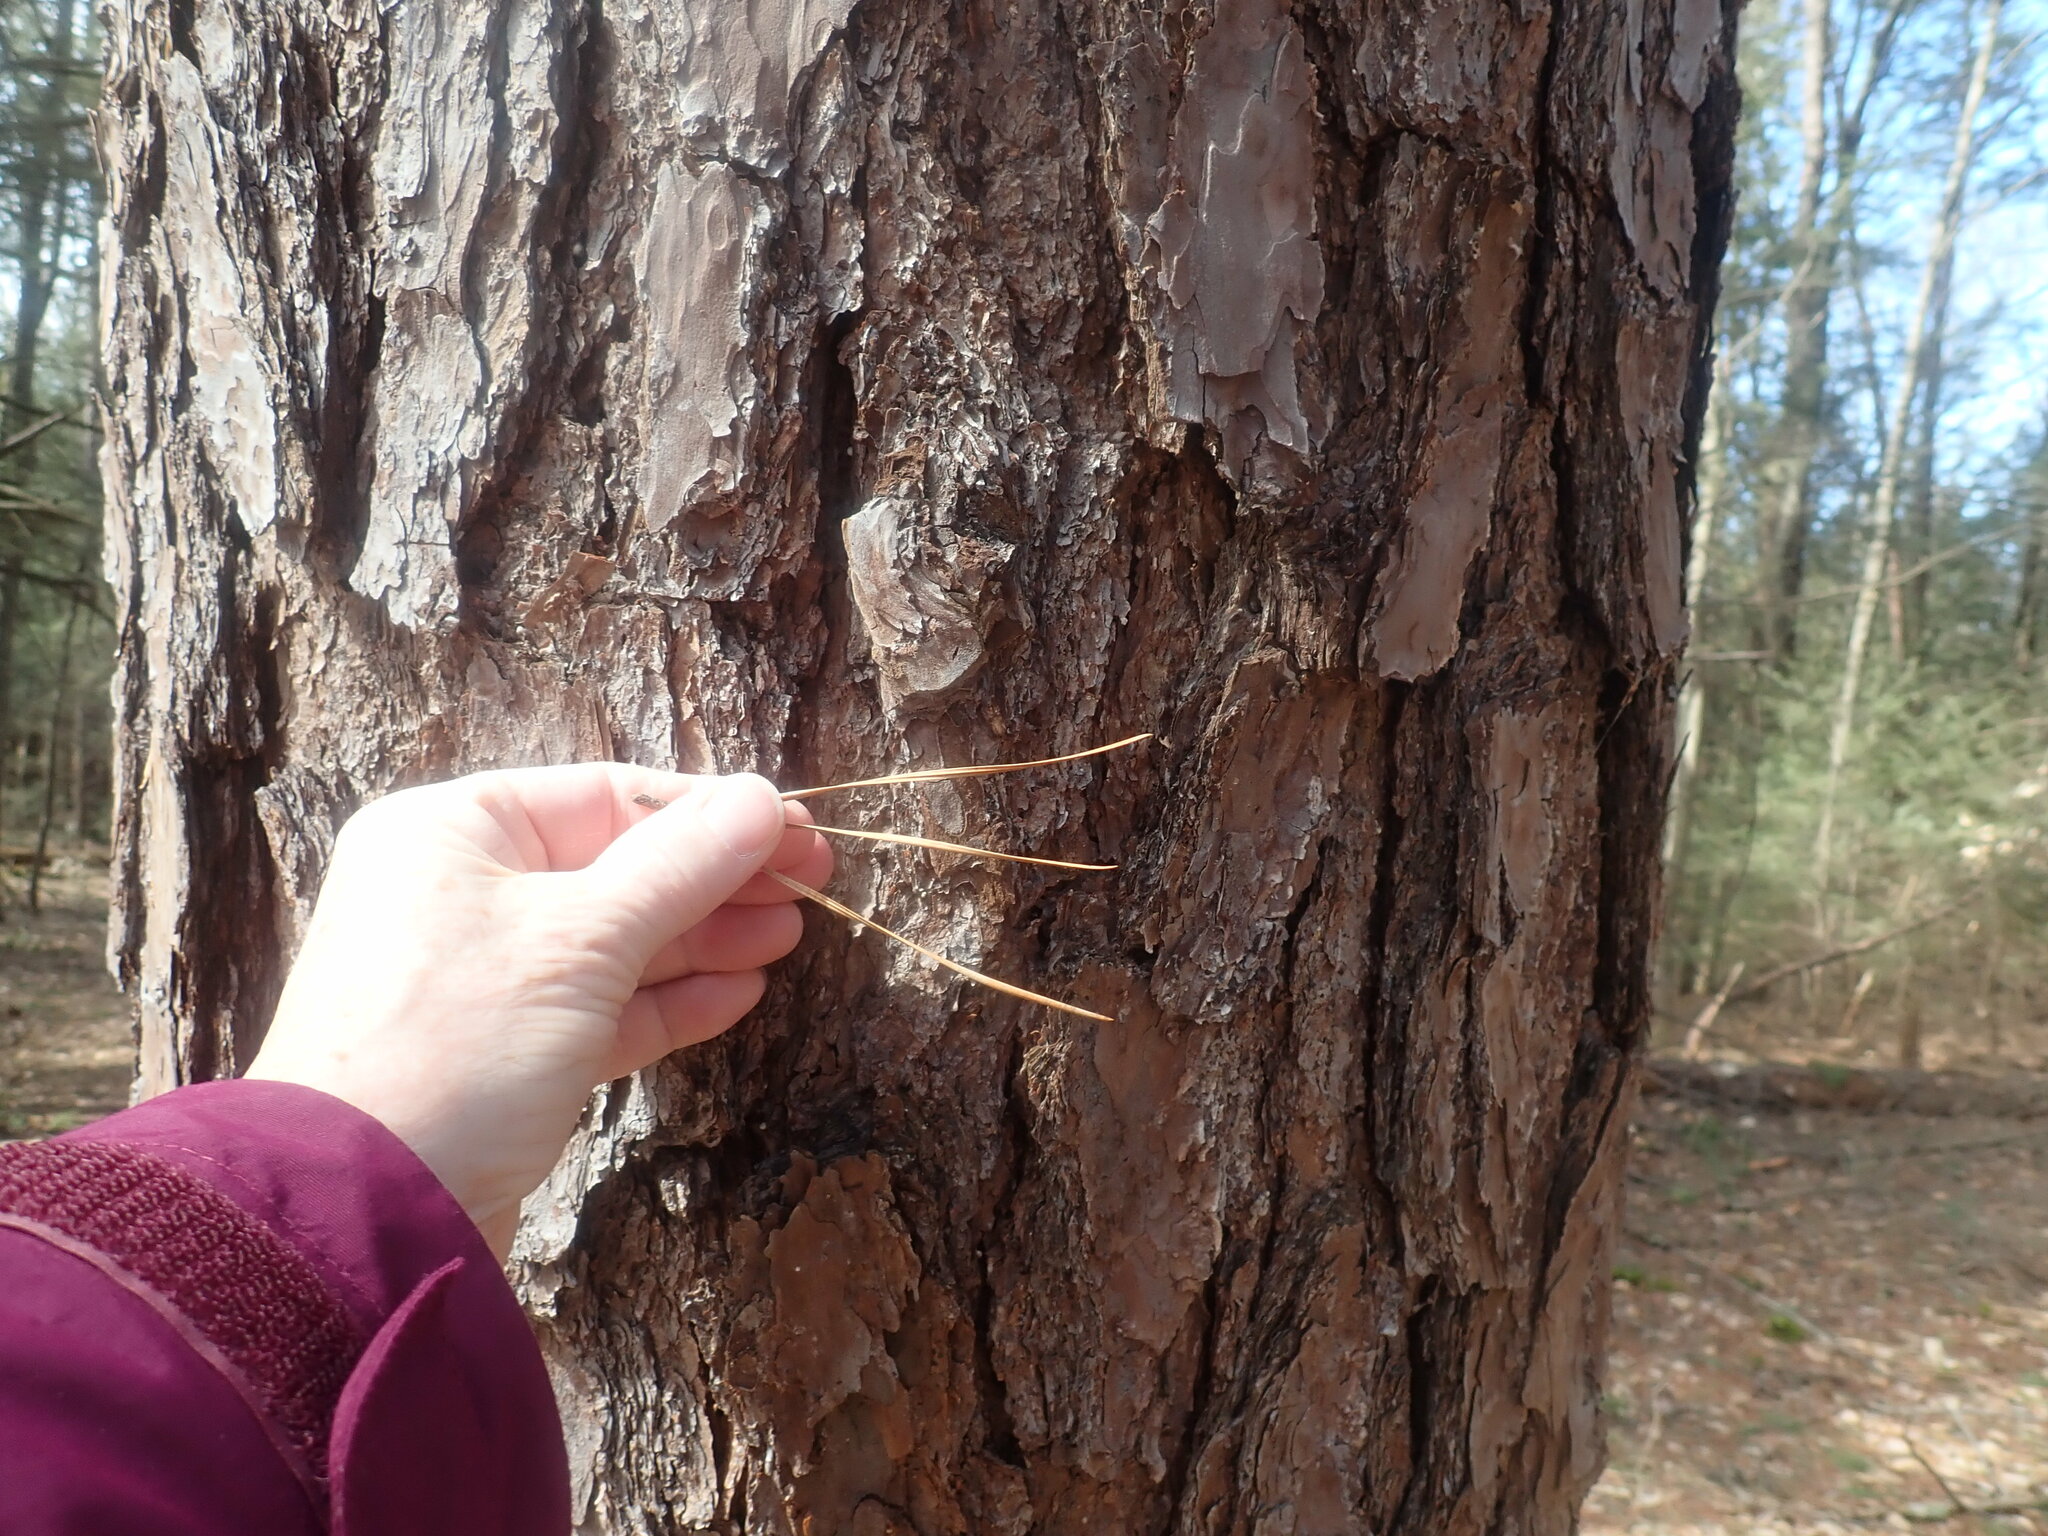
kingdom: Plantae
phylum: Tracheophyta
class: Pinopsida
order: Pinales
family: Pinaceae
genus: Pinus
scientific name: Pinus rigida
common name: Pitch pine
